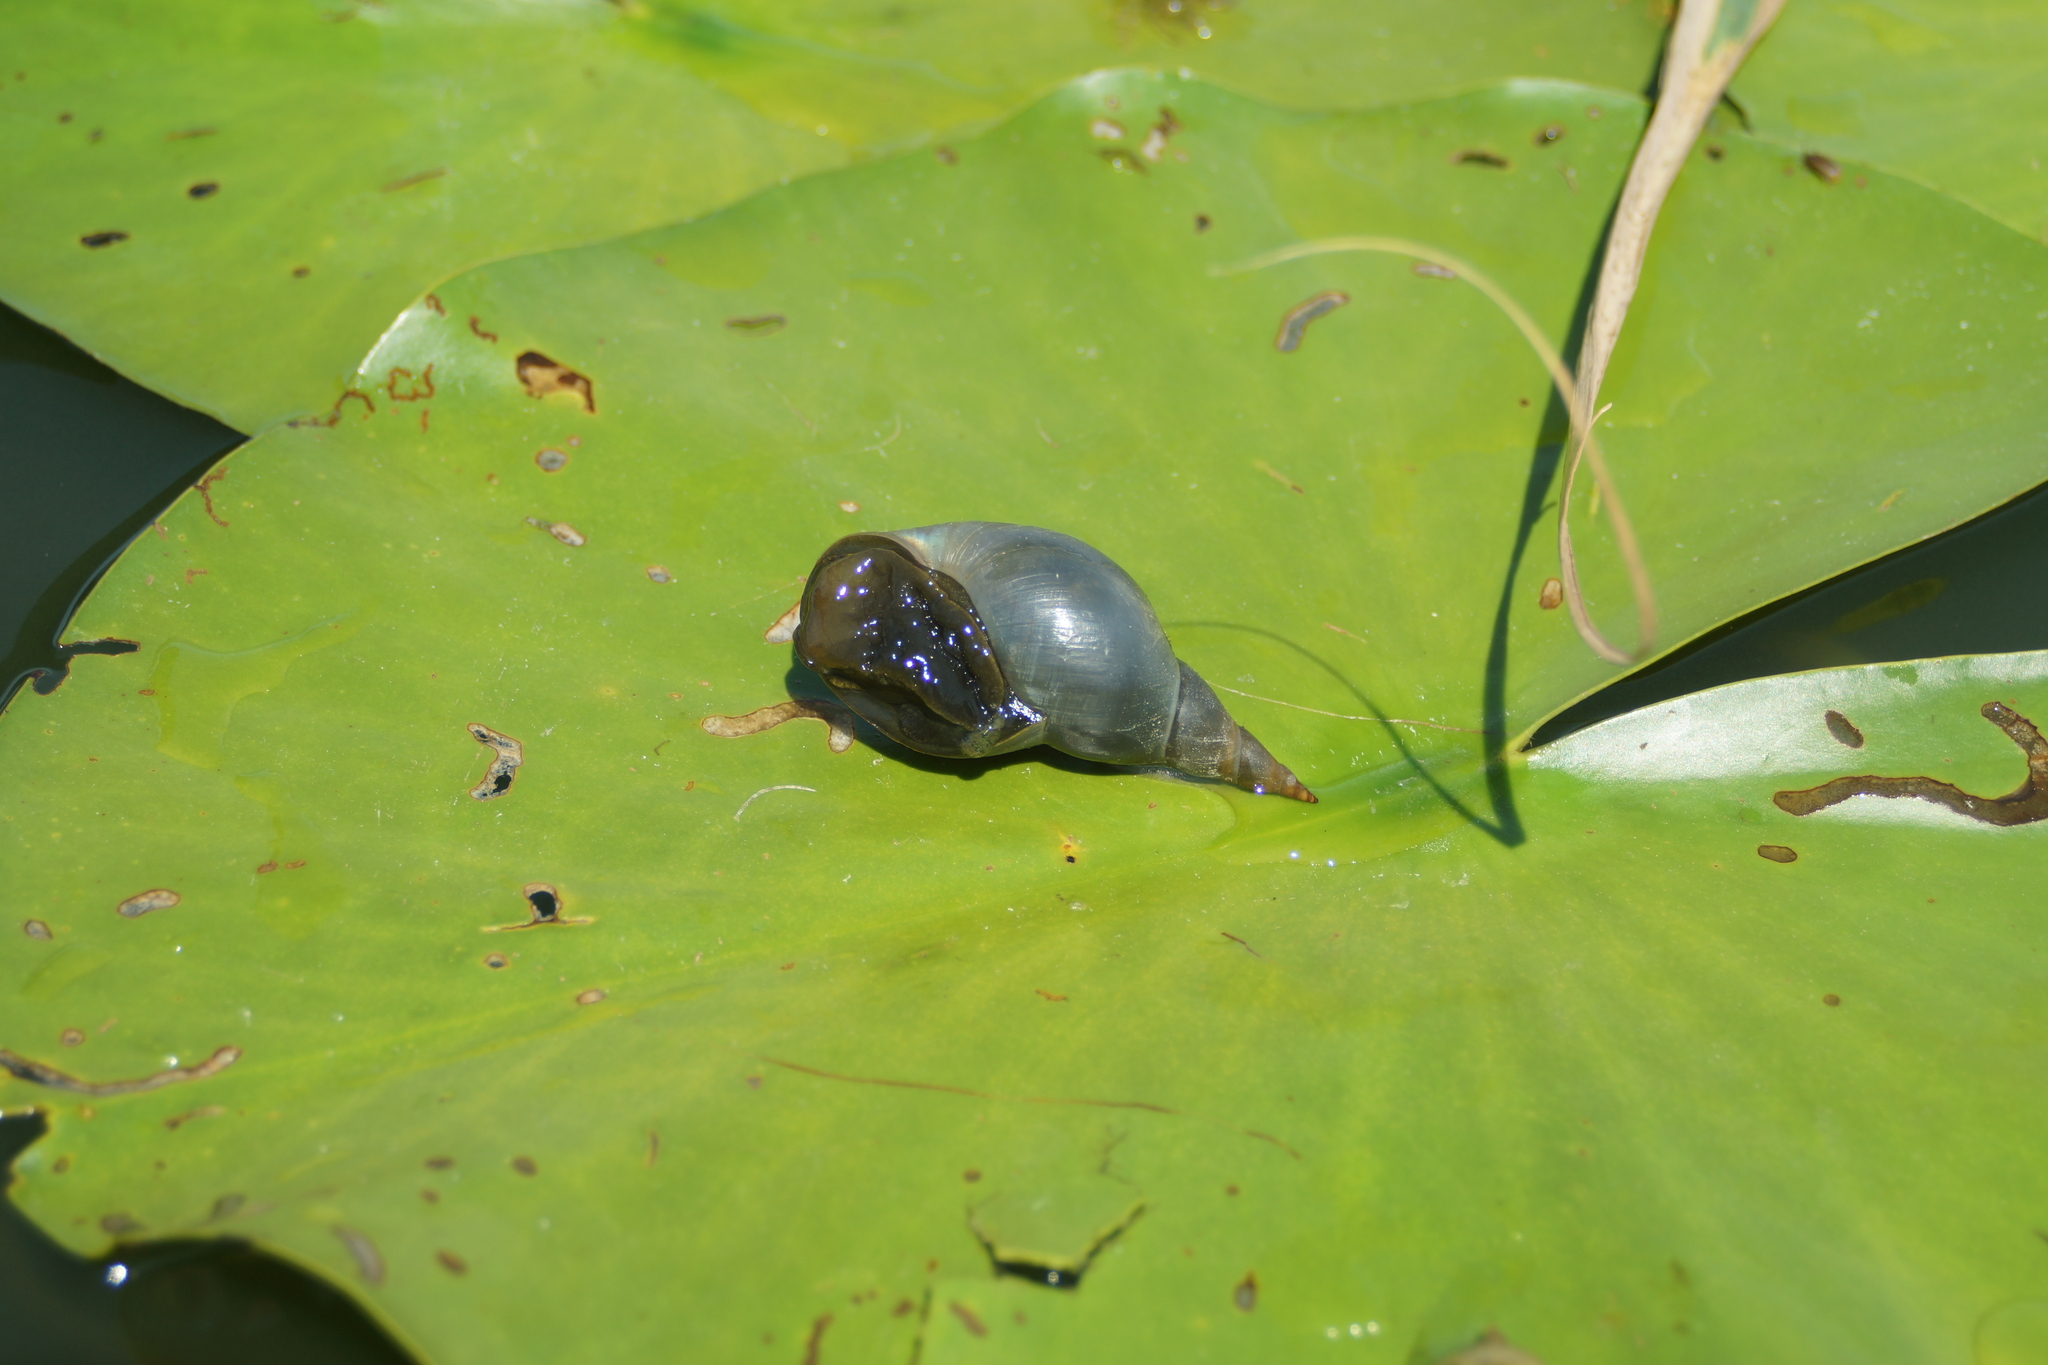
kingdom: Animalia
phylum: Mollusca
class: Gastropoda
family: Lymnaeidae
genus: Lymnaea
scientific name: Lymnaea stagnalis
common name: Great pond snail
